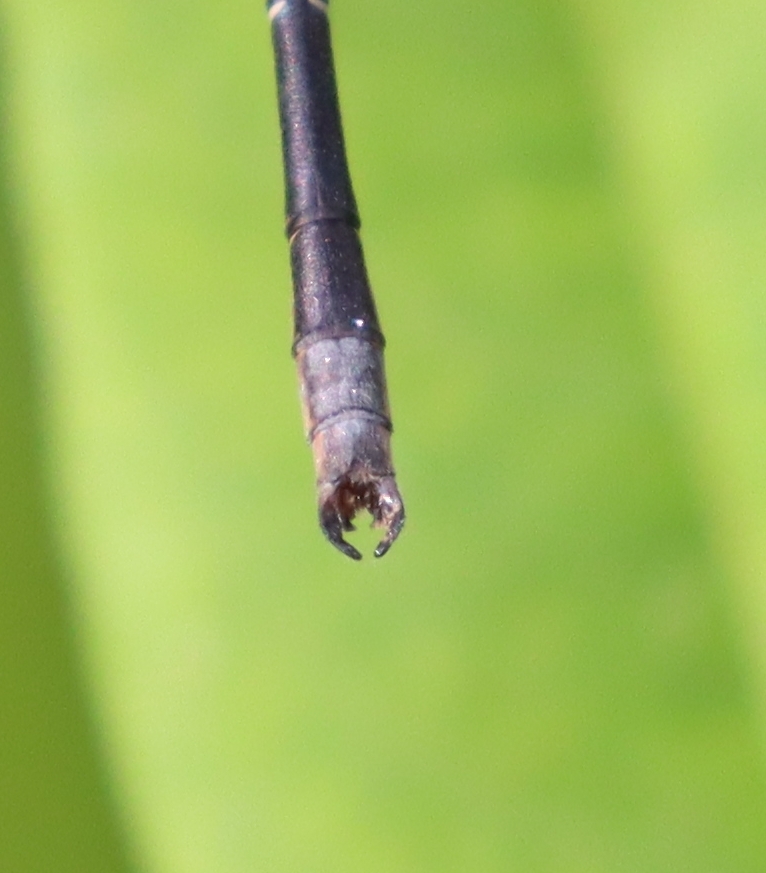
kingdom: Animalia
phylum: Arthropoda
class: Insecta
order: Odonata
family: Lestidae
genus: Lestes
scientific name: Lestes congener
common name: Spotted spreadwing
